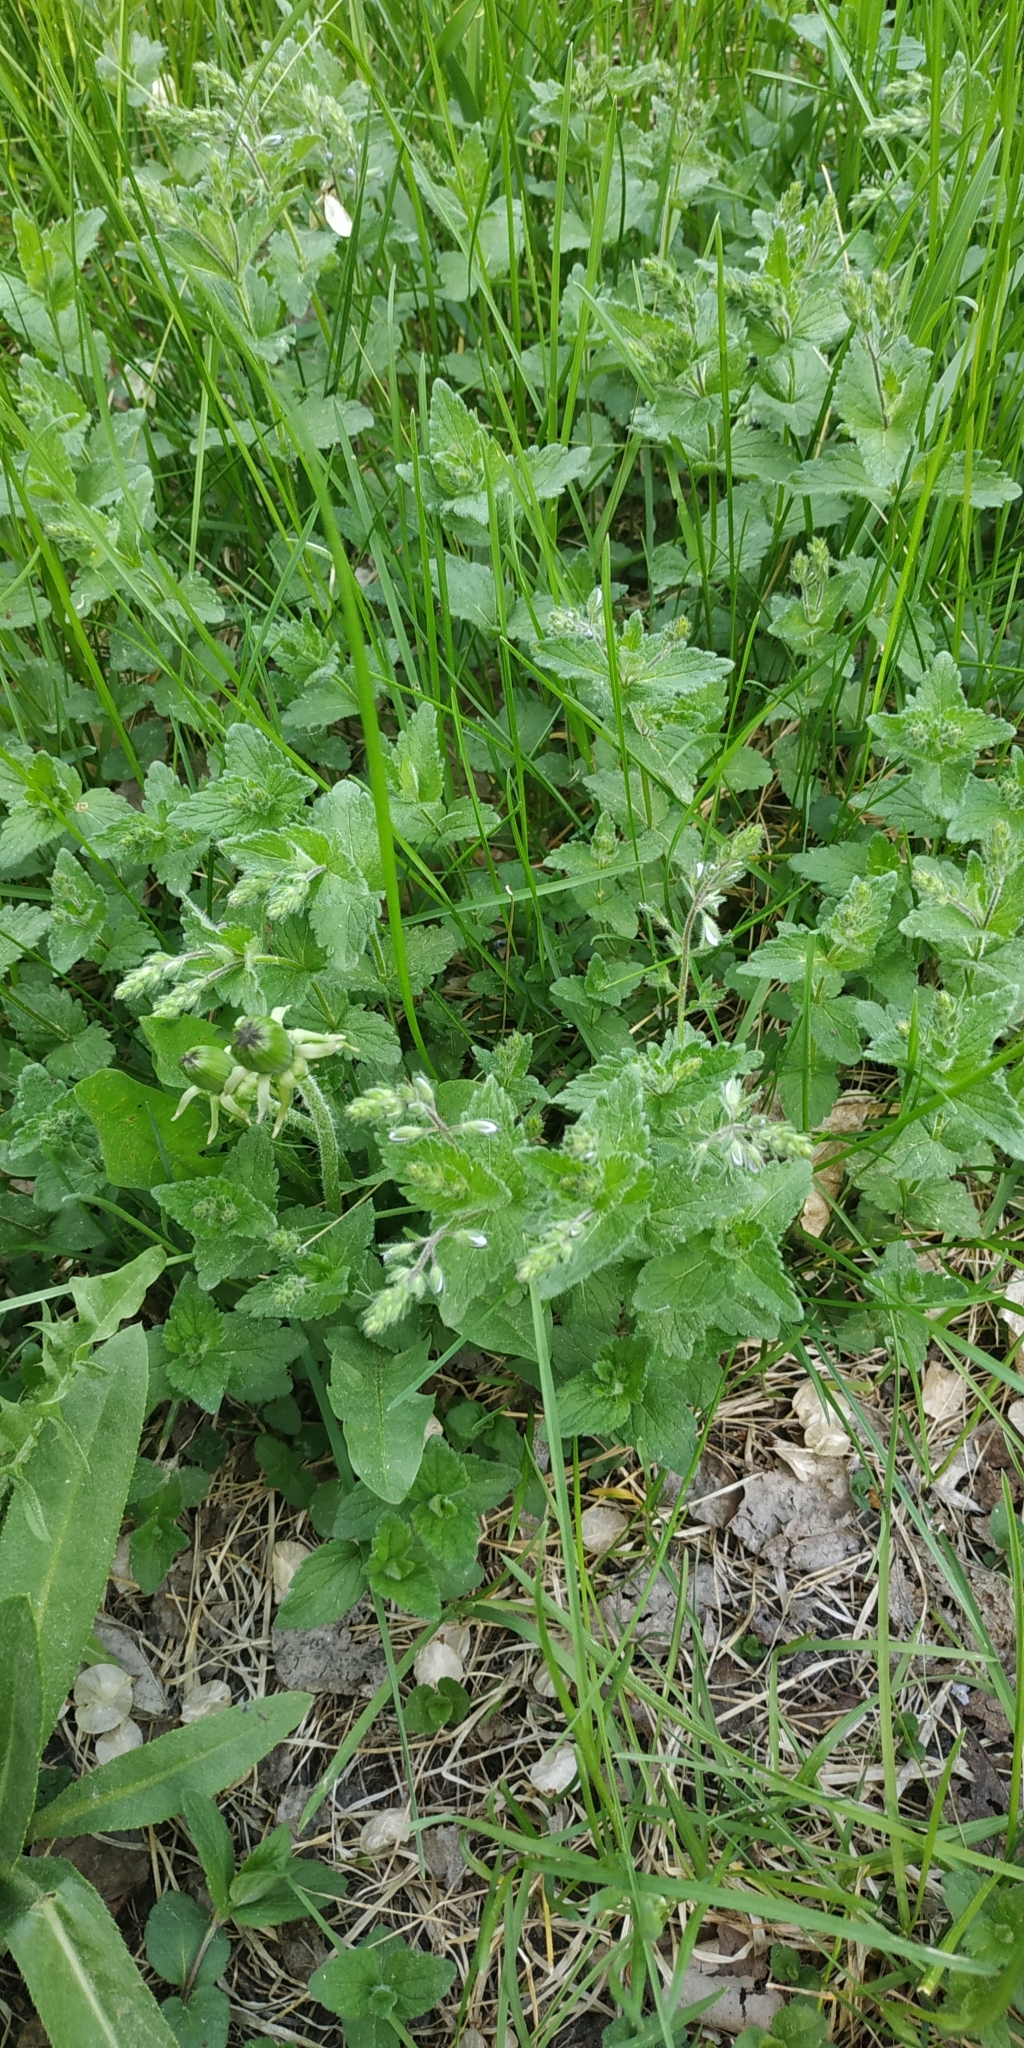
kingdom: Plantae
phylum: Tracheophyta
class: Magnoliopsida
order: Lamiales
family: Plantaginaceae
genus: Veronica
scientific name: Veronica chamaedrys
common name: Germander speedwell
